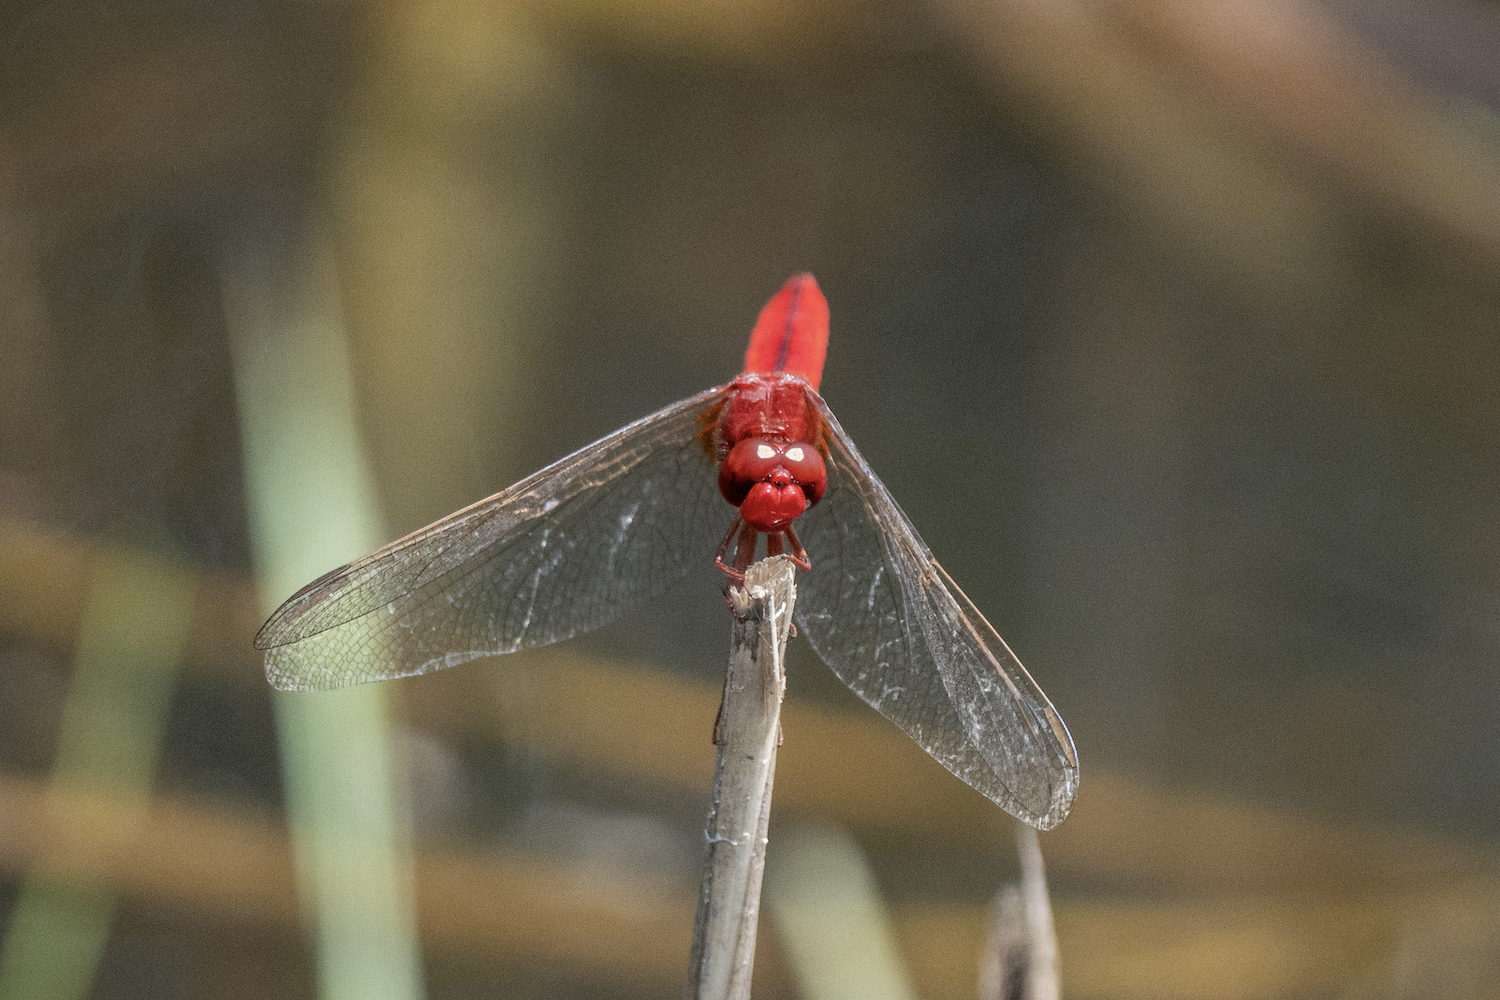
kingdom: Animalia
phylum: Arthropoda
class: Insecta
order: Odonata
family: Libellulidae
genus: Crocothemis
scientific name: Crocothemis servilia
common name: Scarlet skimmer
